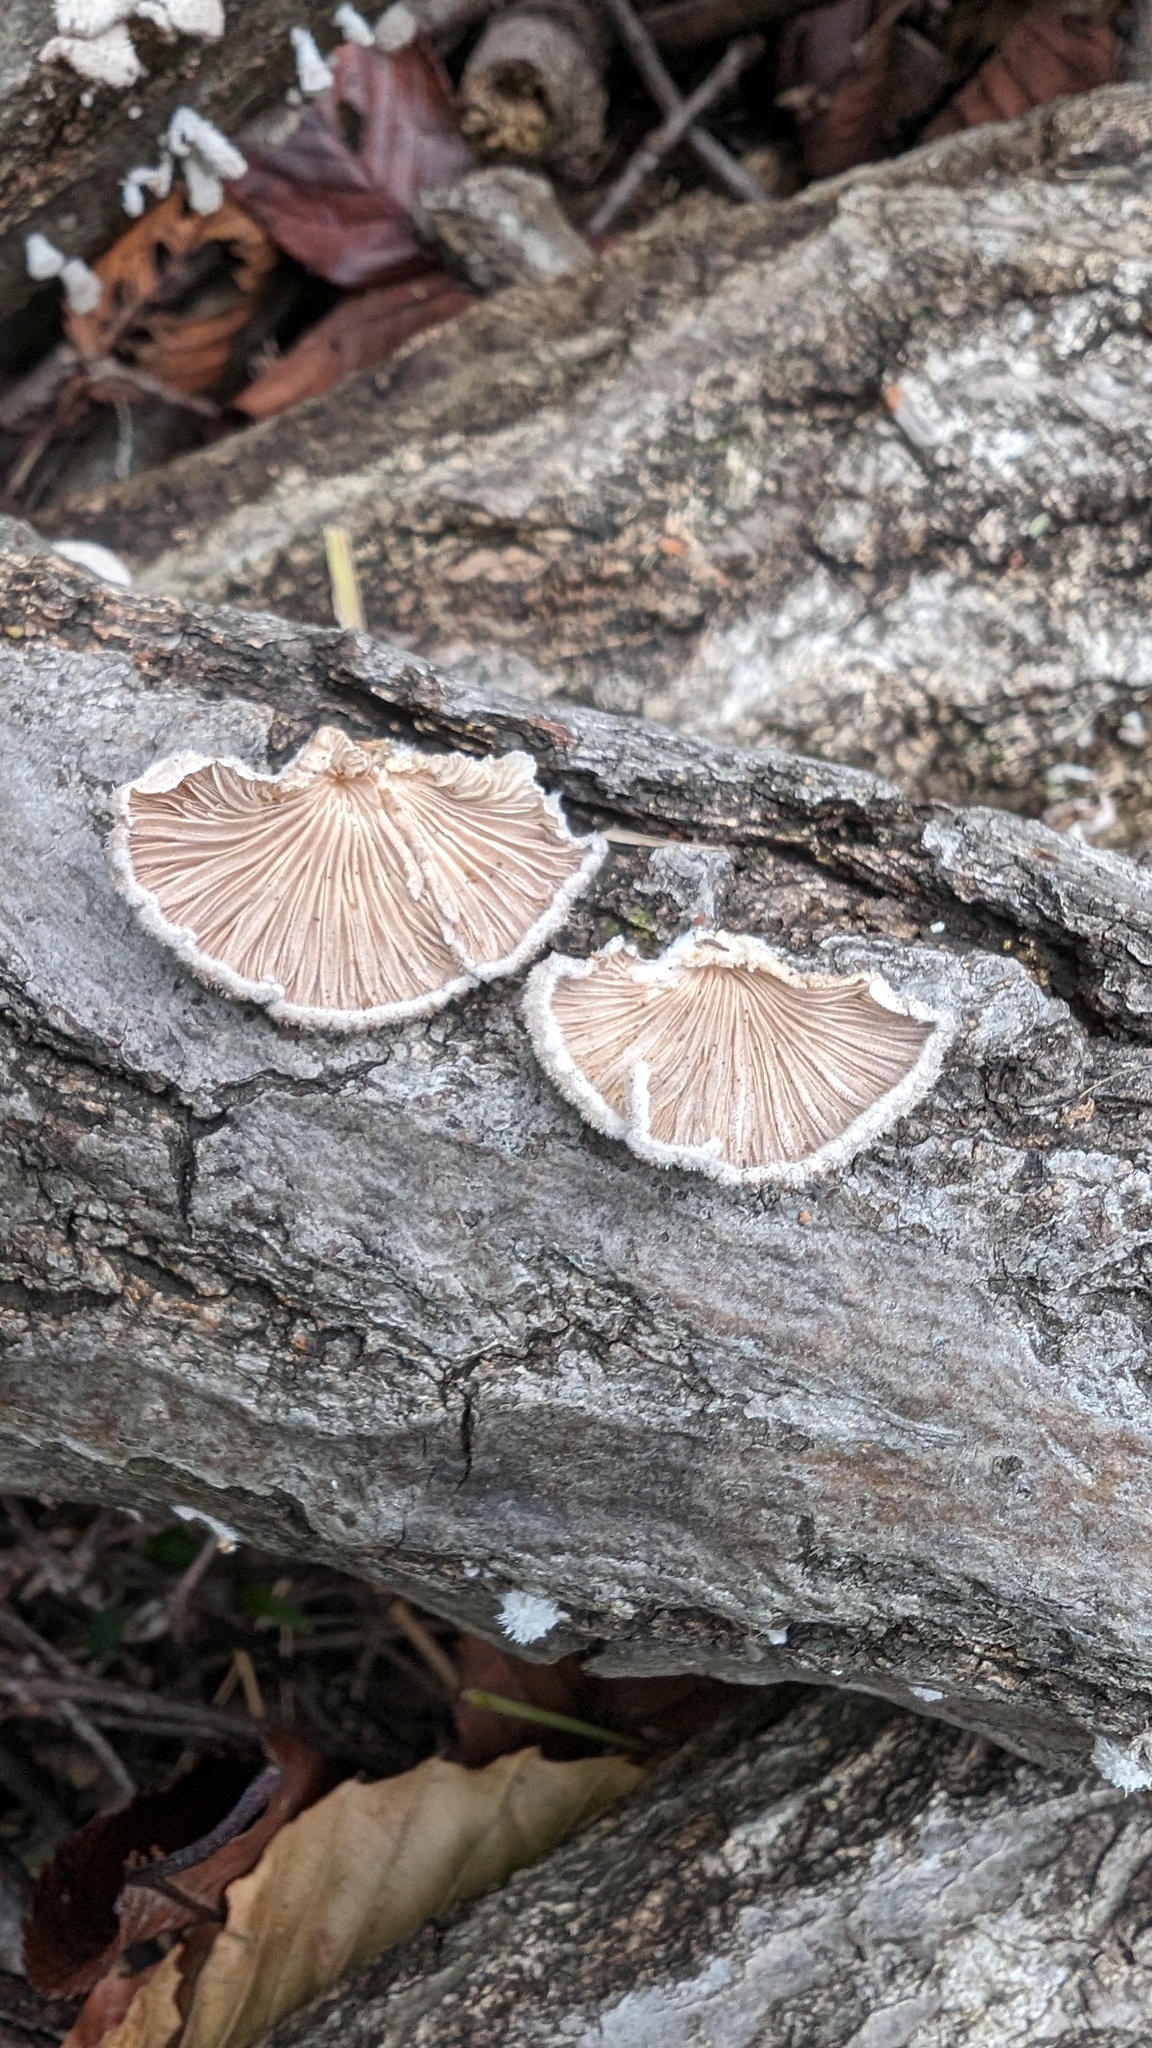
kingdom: Fungi
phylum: Basidiomycota
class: Agaricomycetes
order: Agaricales
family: Schizophyllaceae
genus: Schizophyllum
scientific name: Schizophyllum commune
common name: Common porecrust
